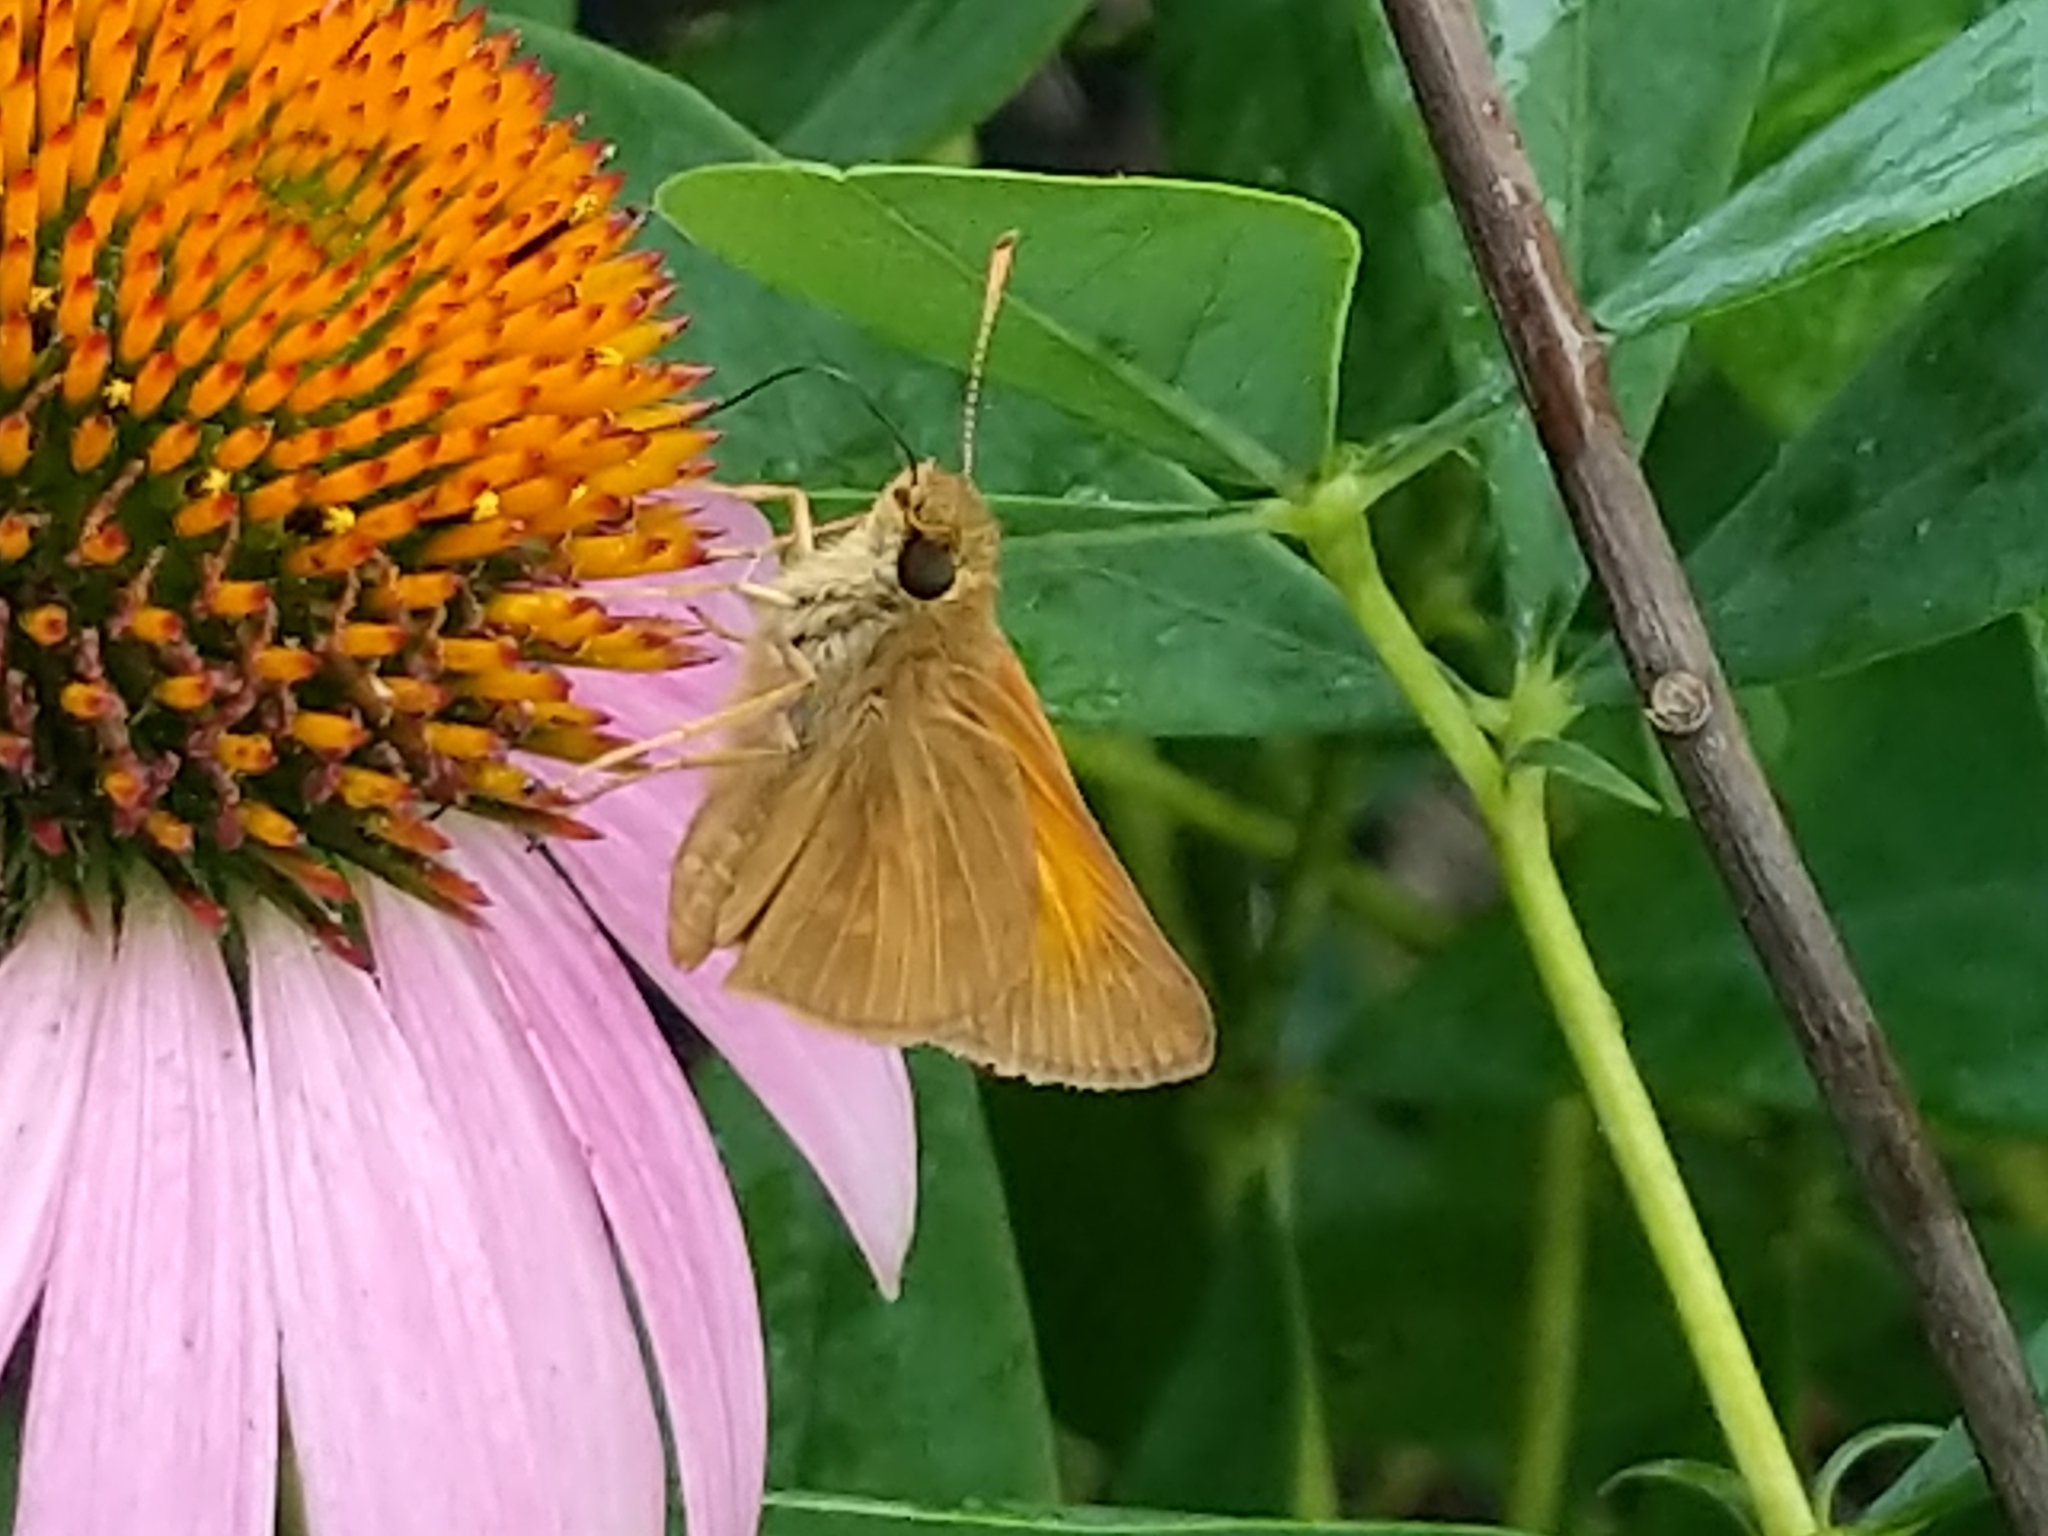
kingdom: Animalia
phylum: Arthropoda
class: Insecta
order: Lepidoptera
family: Hesperiidae
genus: Poanes
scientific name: Poanes aaroni
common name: Aaron's skipper
